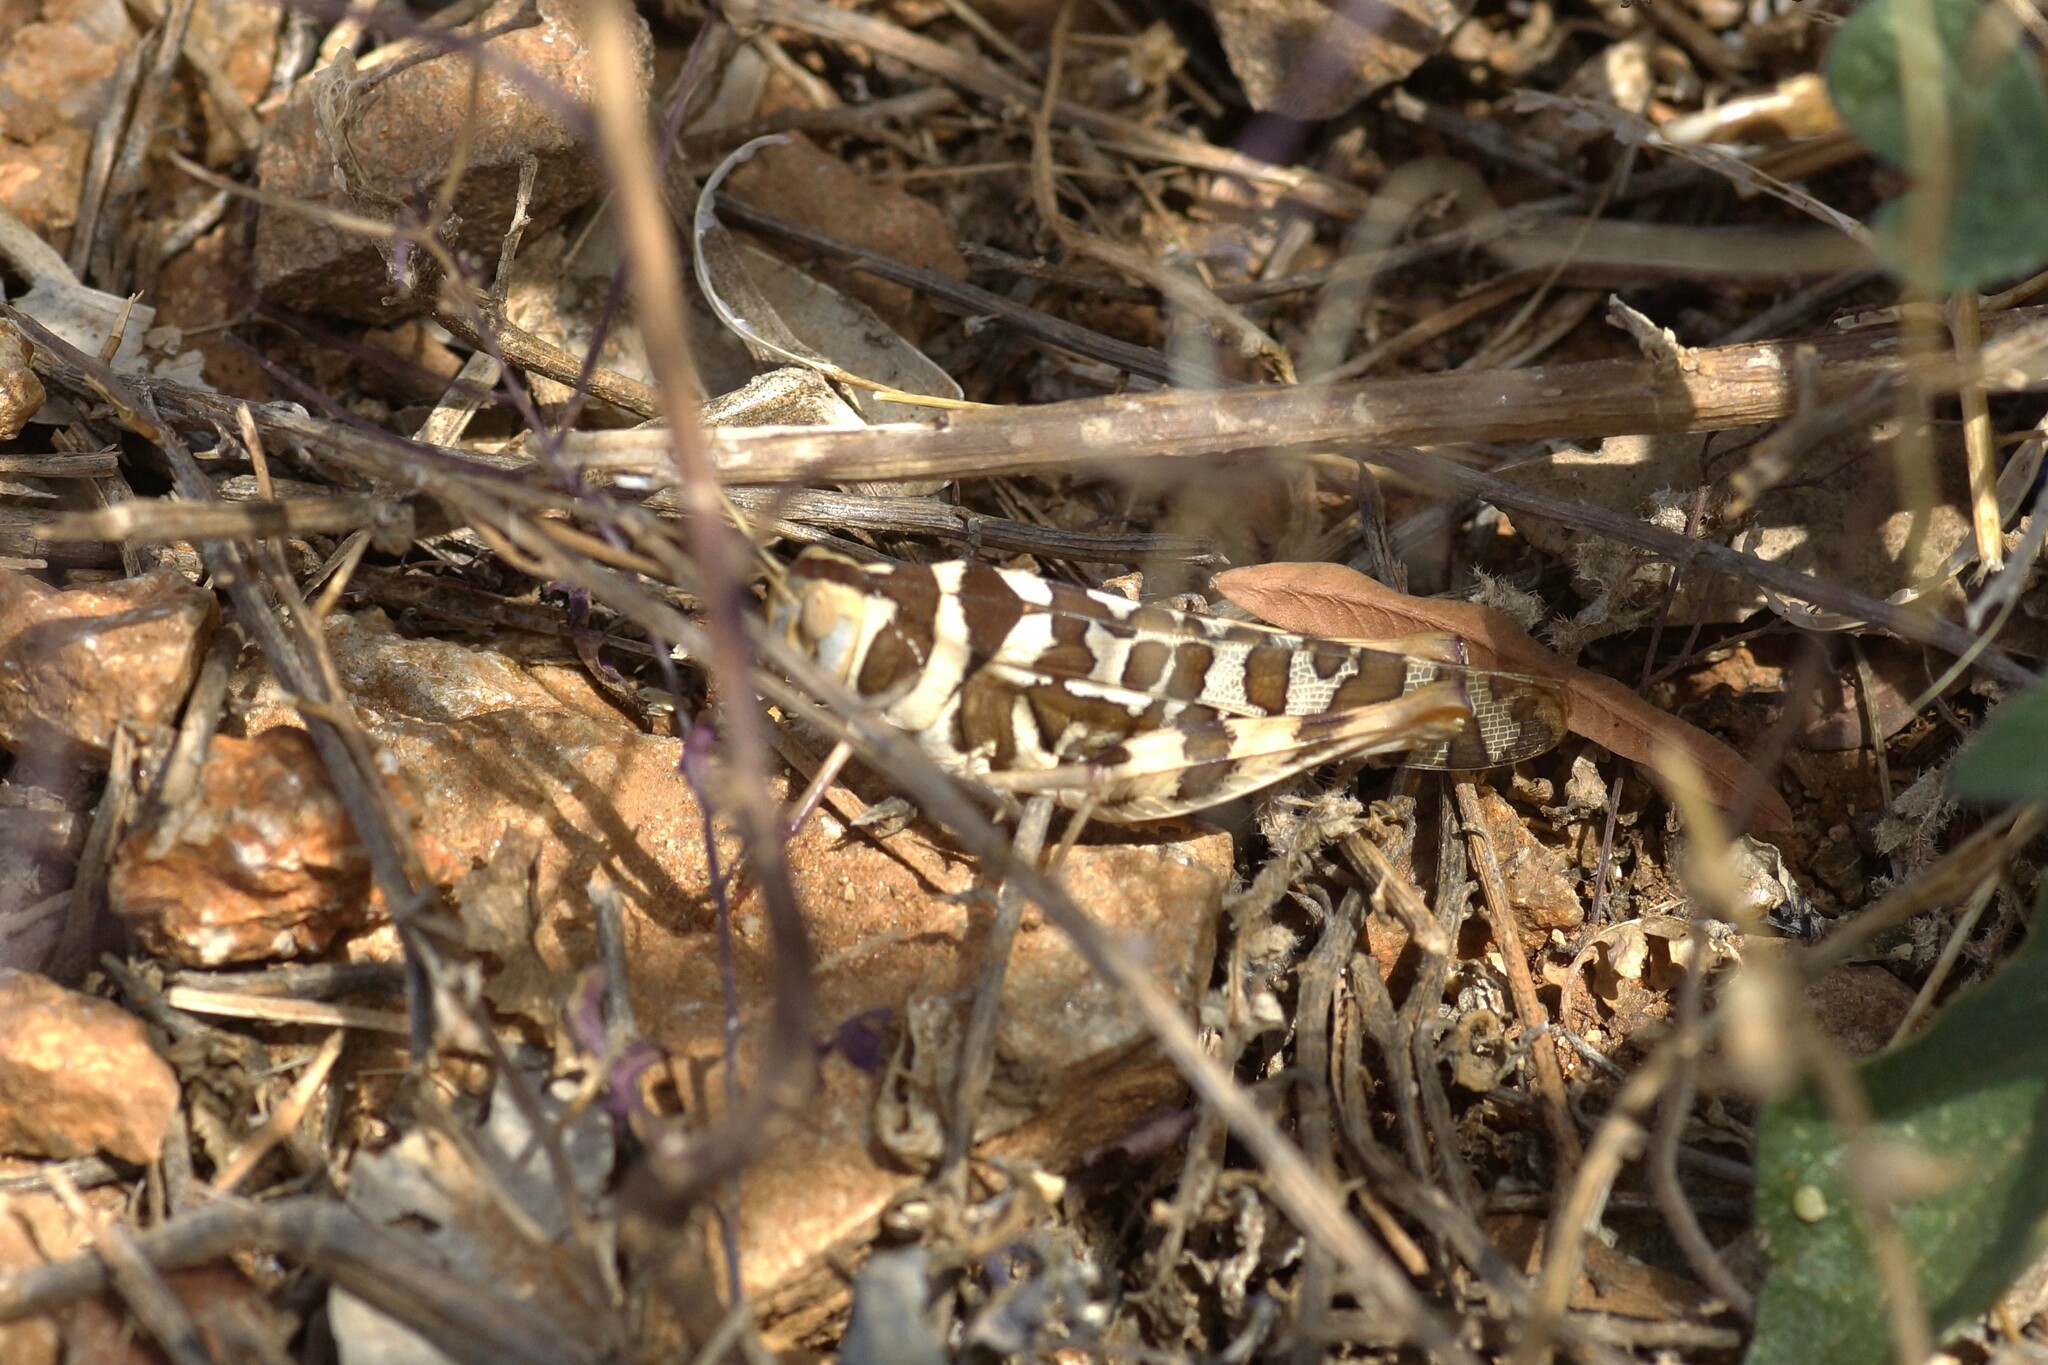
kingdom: Animalia
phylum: Arthropoda
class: Insecta
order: Orthoptera
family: Acrididae
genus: Stropis
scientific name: Stropis maculosa
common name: Leopard grasshopper
